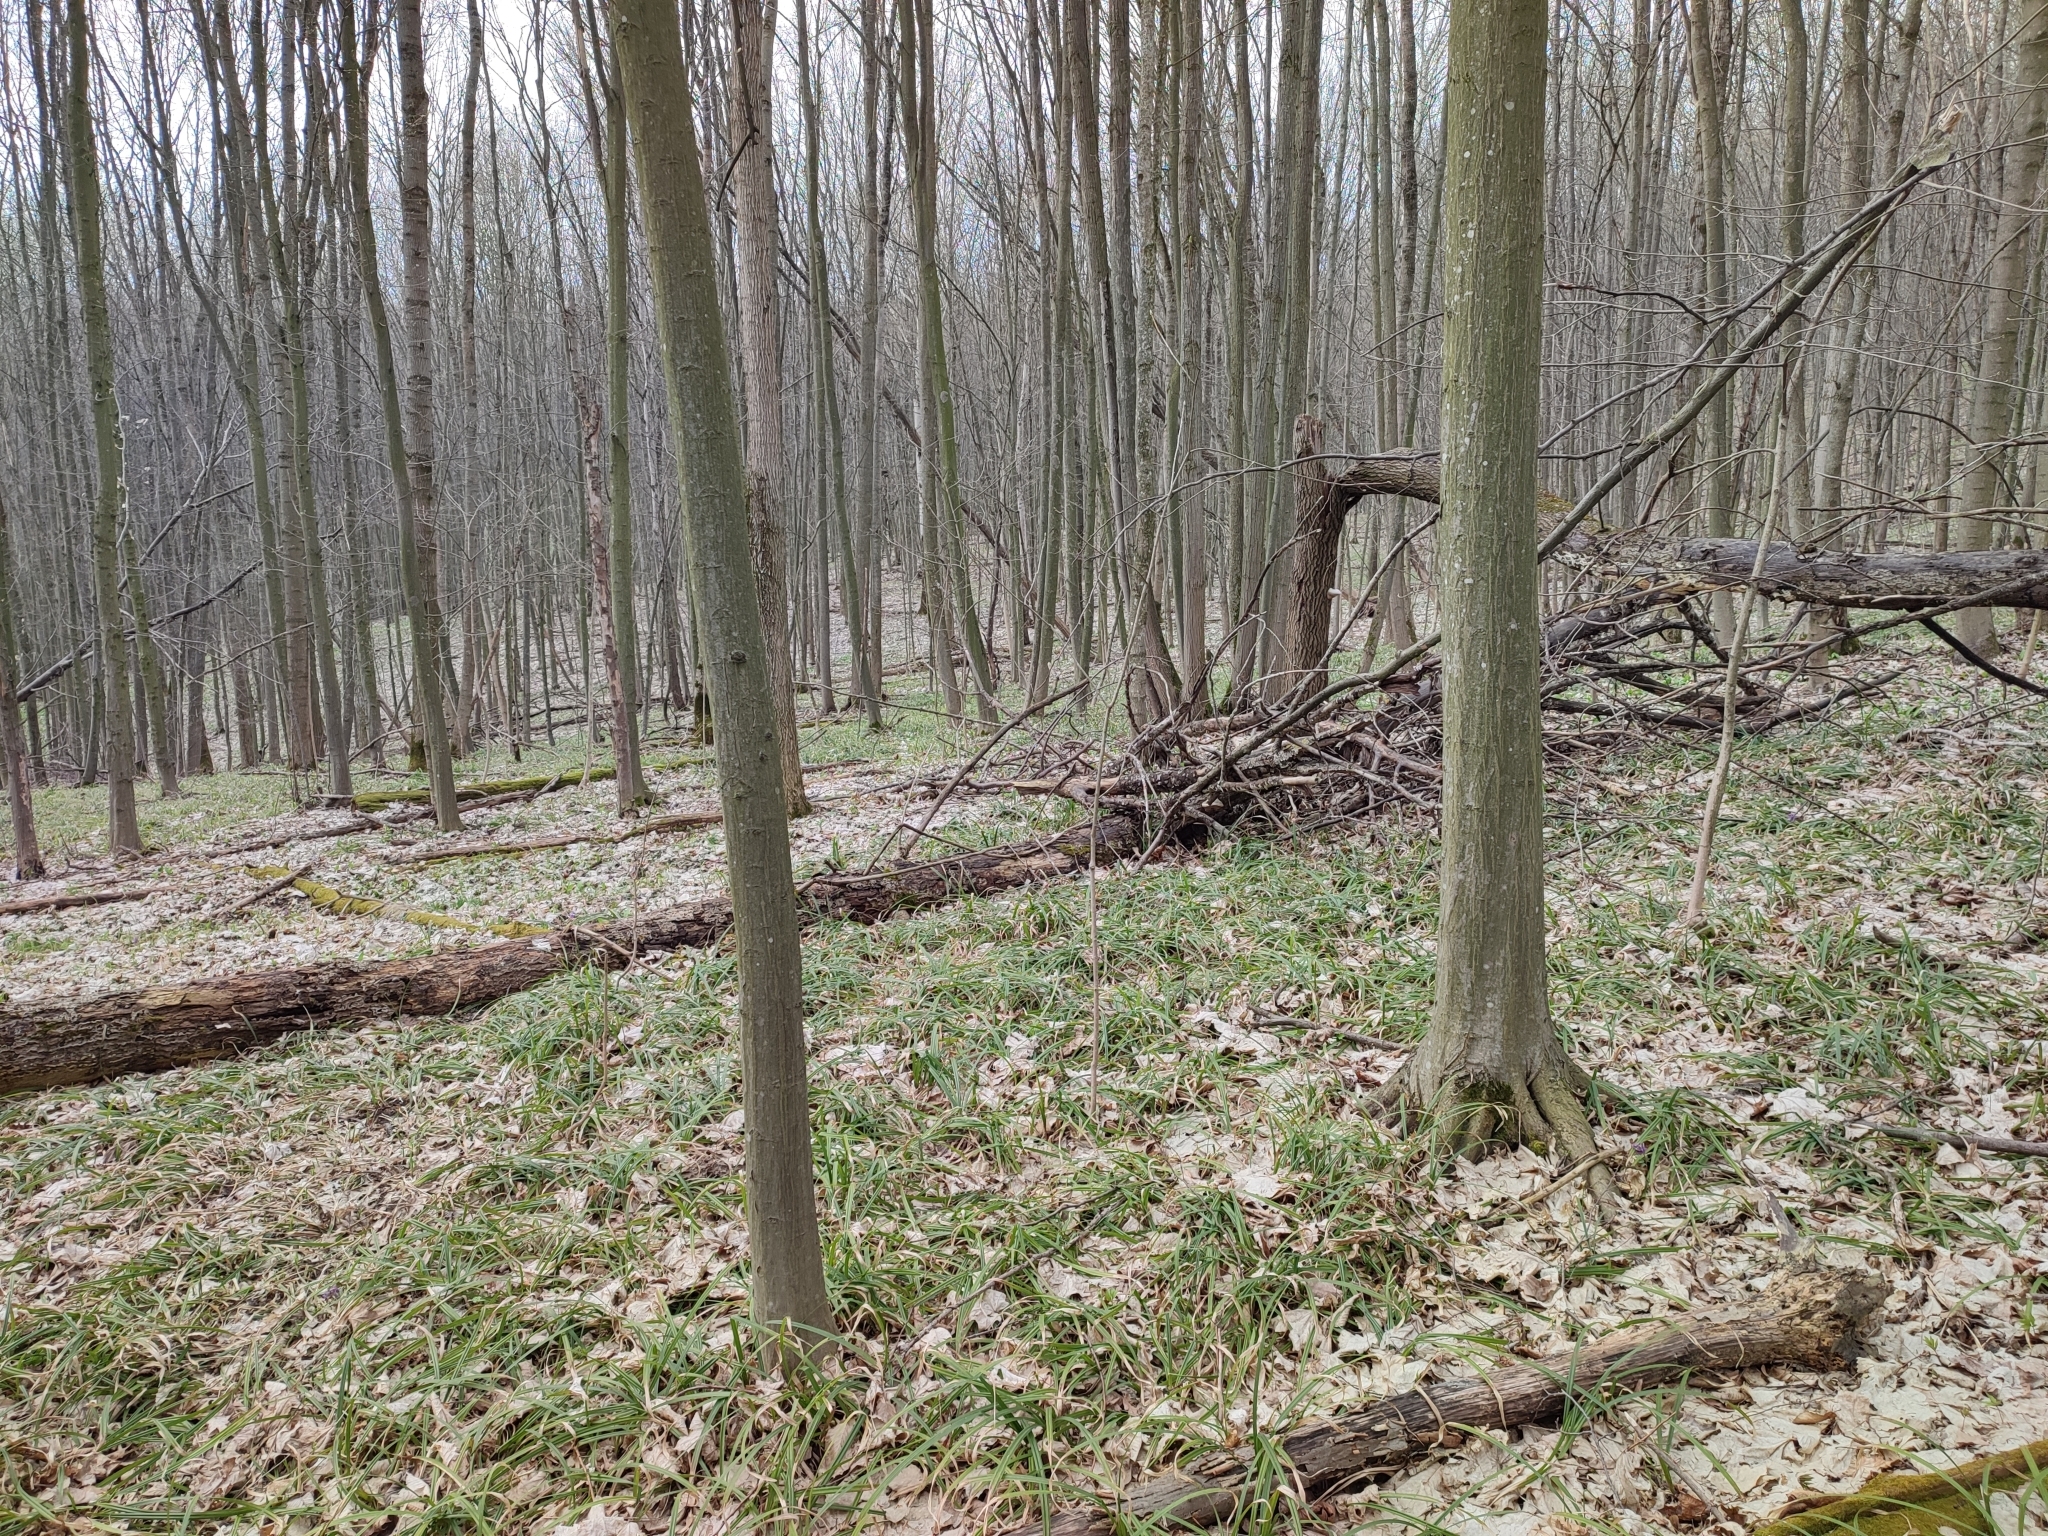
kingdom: Plantae
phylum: Tracheophyta
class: Magnoliopsida
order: Fagales
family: Betulaceae
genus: Carpinus
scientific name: Carpinus betulus
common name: Hornbeam
